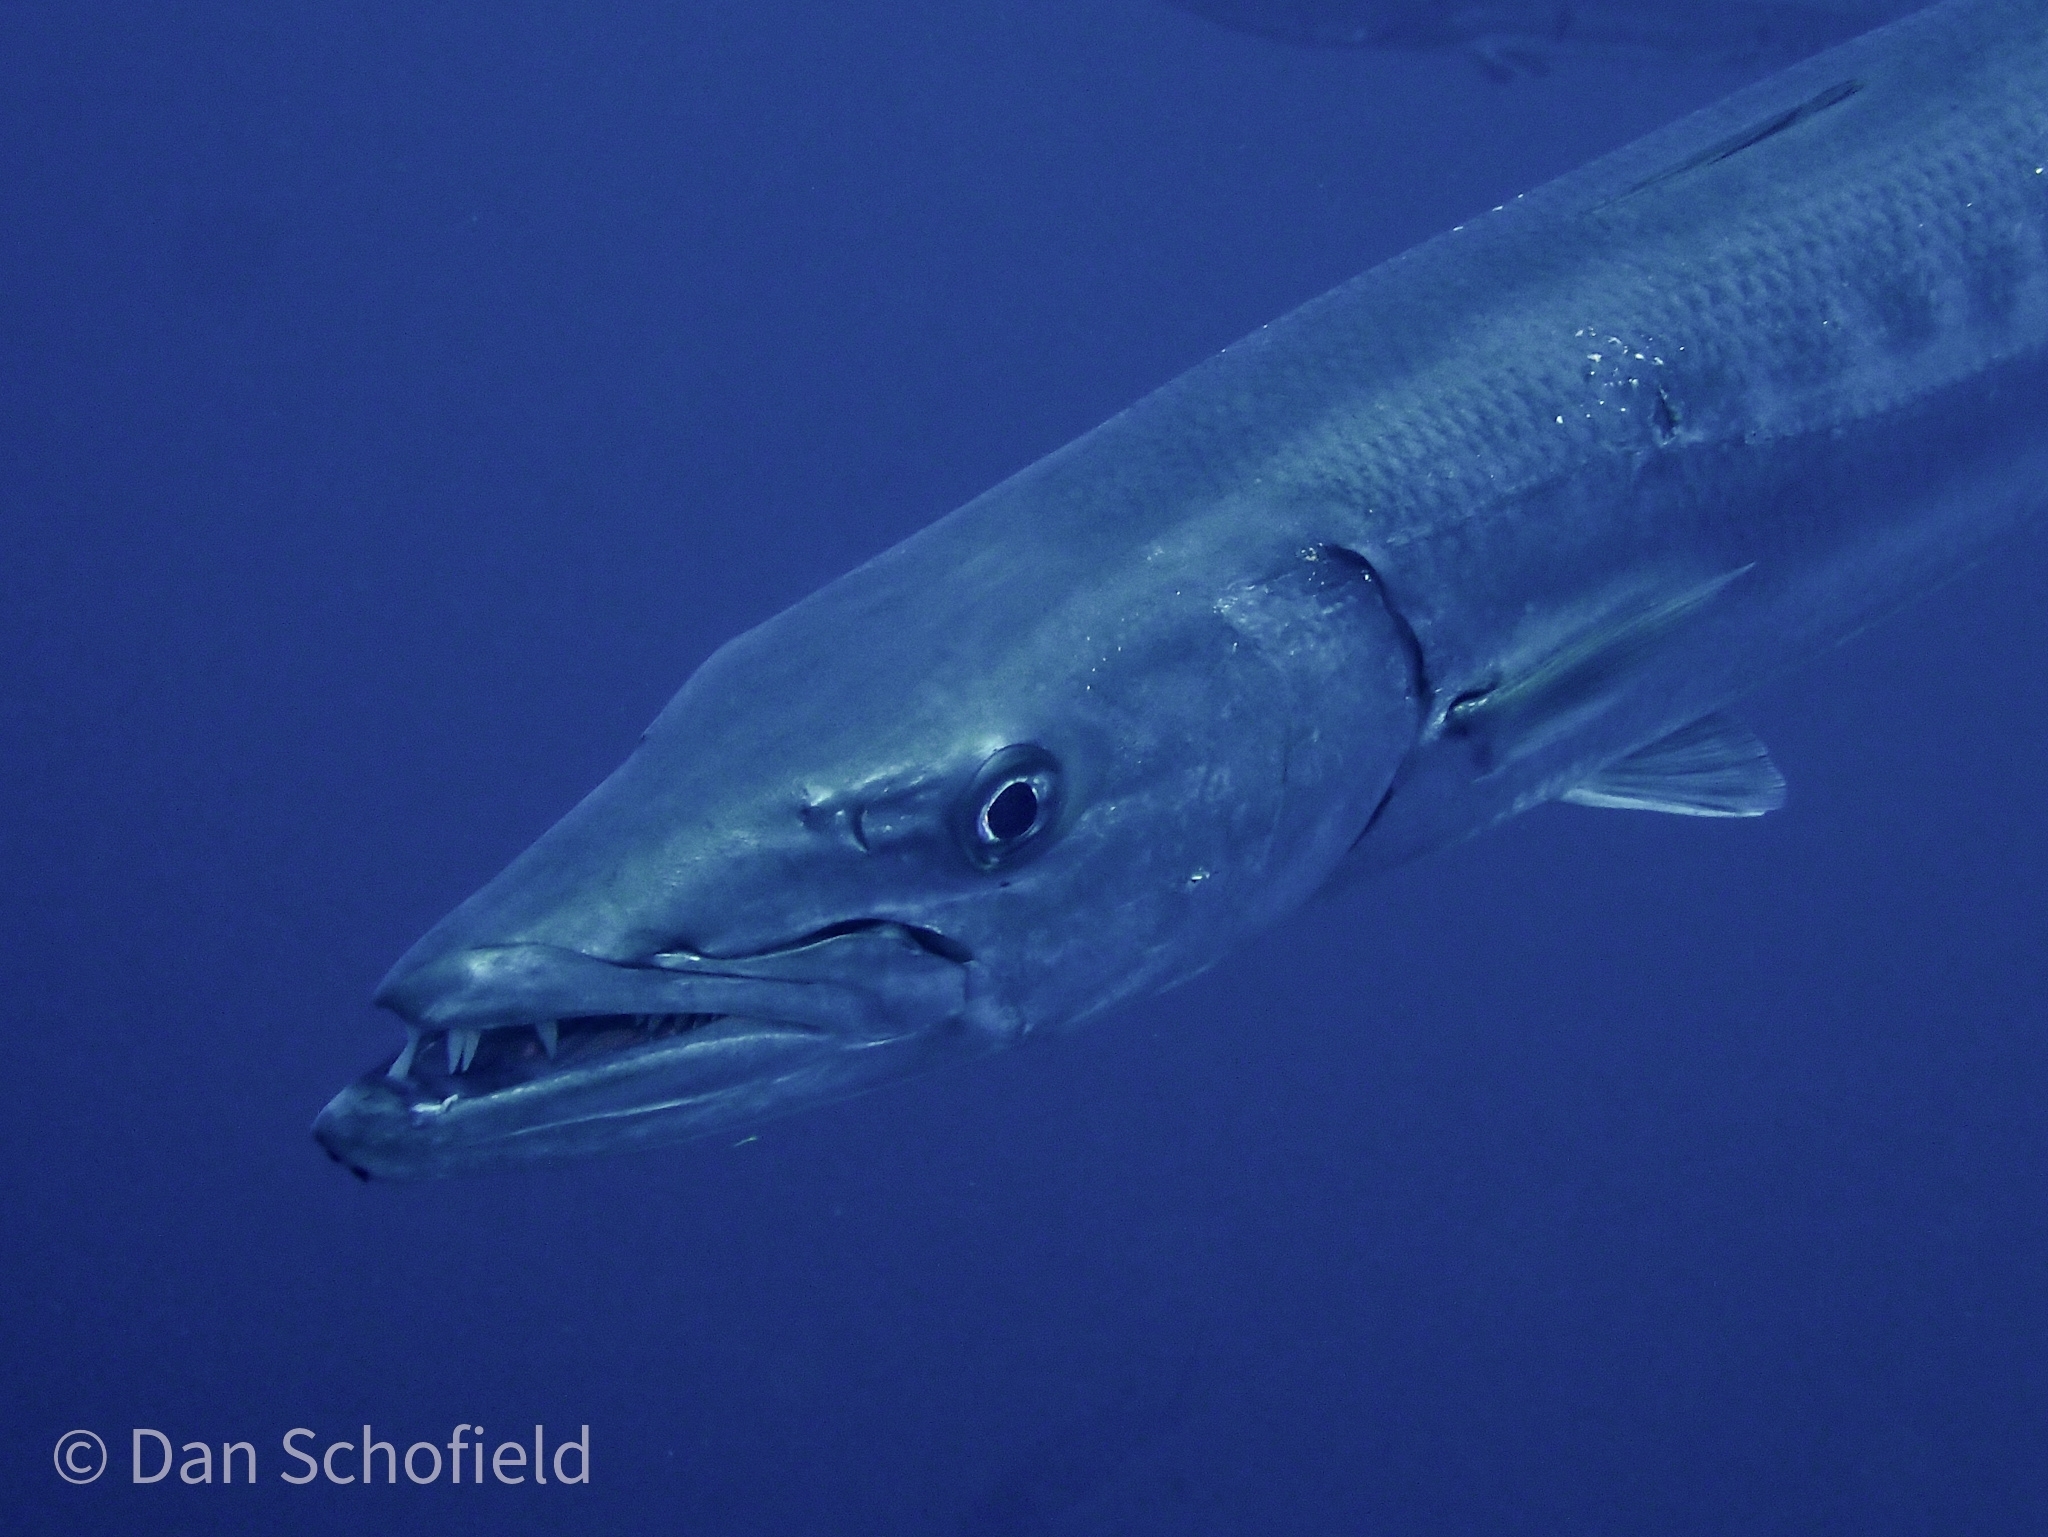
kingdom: Animalia
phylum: Chordata
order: Perciformes
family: Sphyraenidae
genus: Sphyraena
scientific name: Sphyraena barracuda
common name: Great barracuda
